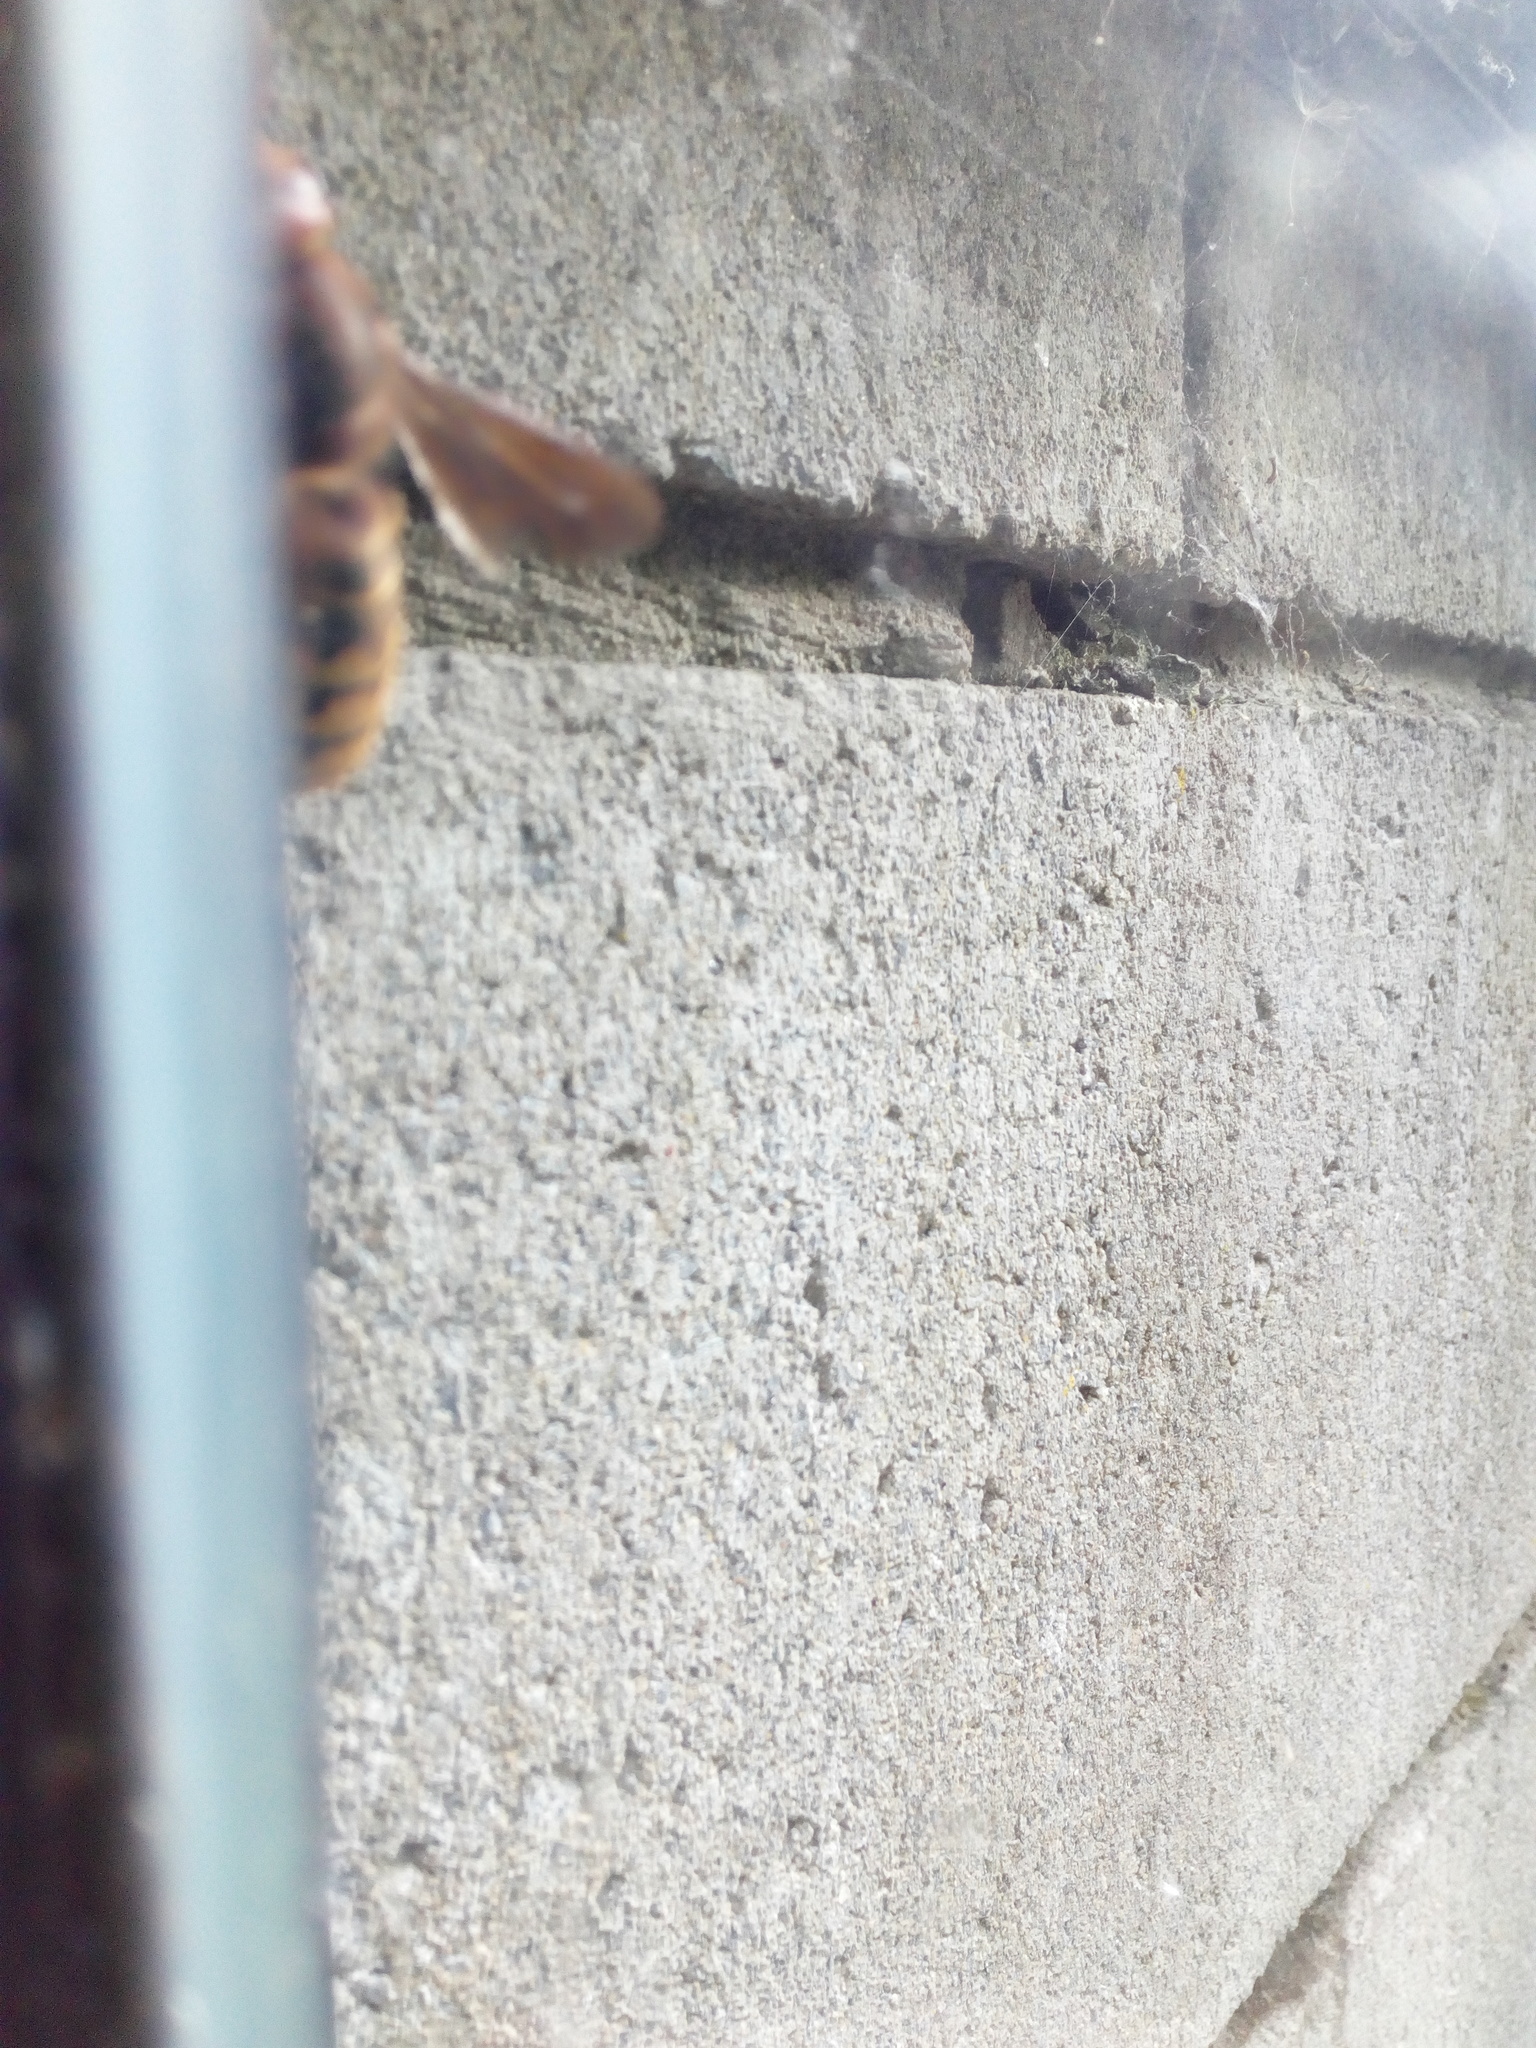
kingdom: Animalia
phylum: Arthropoda
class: Insecta
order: Hymenoptera
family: Vespidae
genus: Vespa
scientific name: Vespa crabro
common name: Hornet
